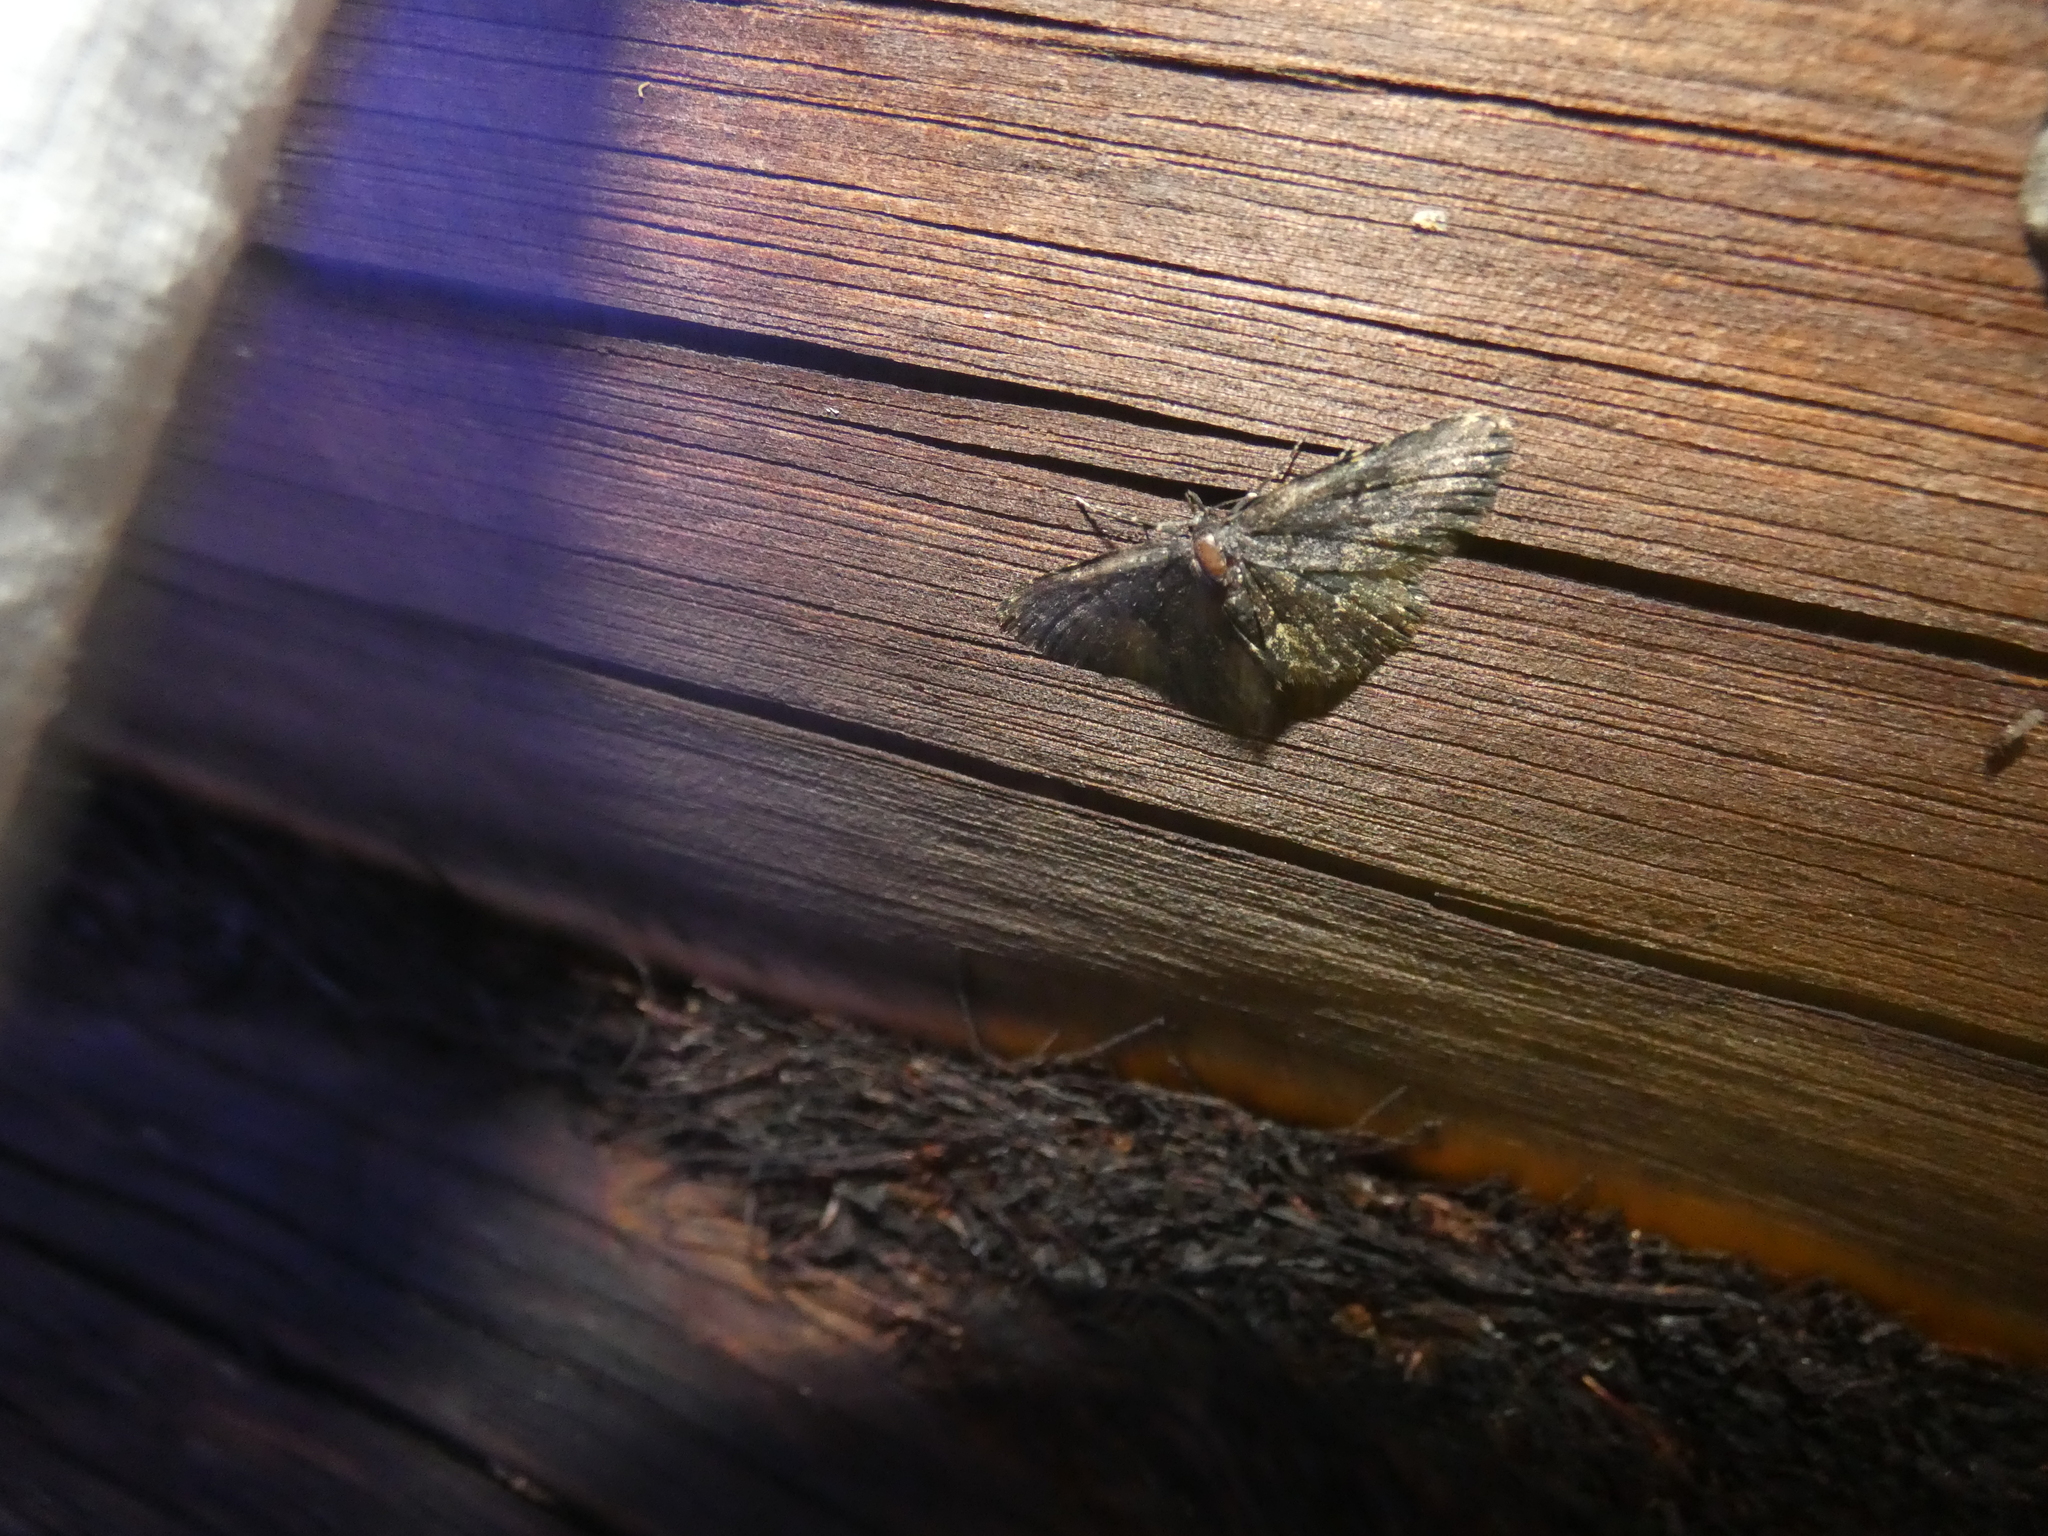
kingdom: Animalia
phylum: Arthropoda
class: Insecta
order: Lepidoptera
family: Erebidae
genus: Parascotia
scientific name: Parascotia fuliginaria
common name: Waved black
